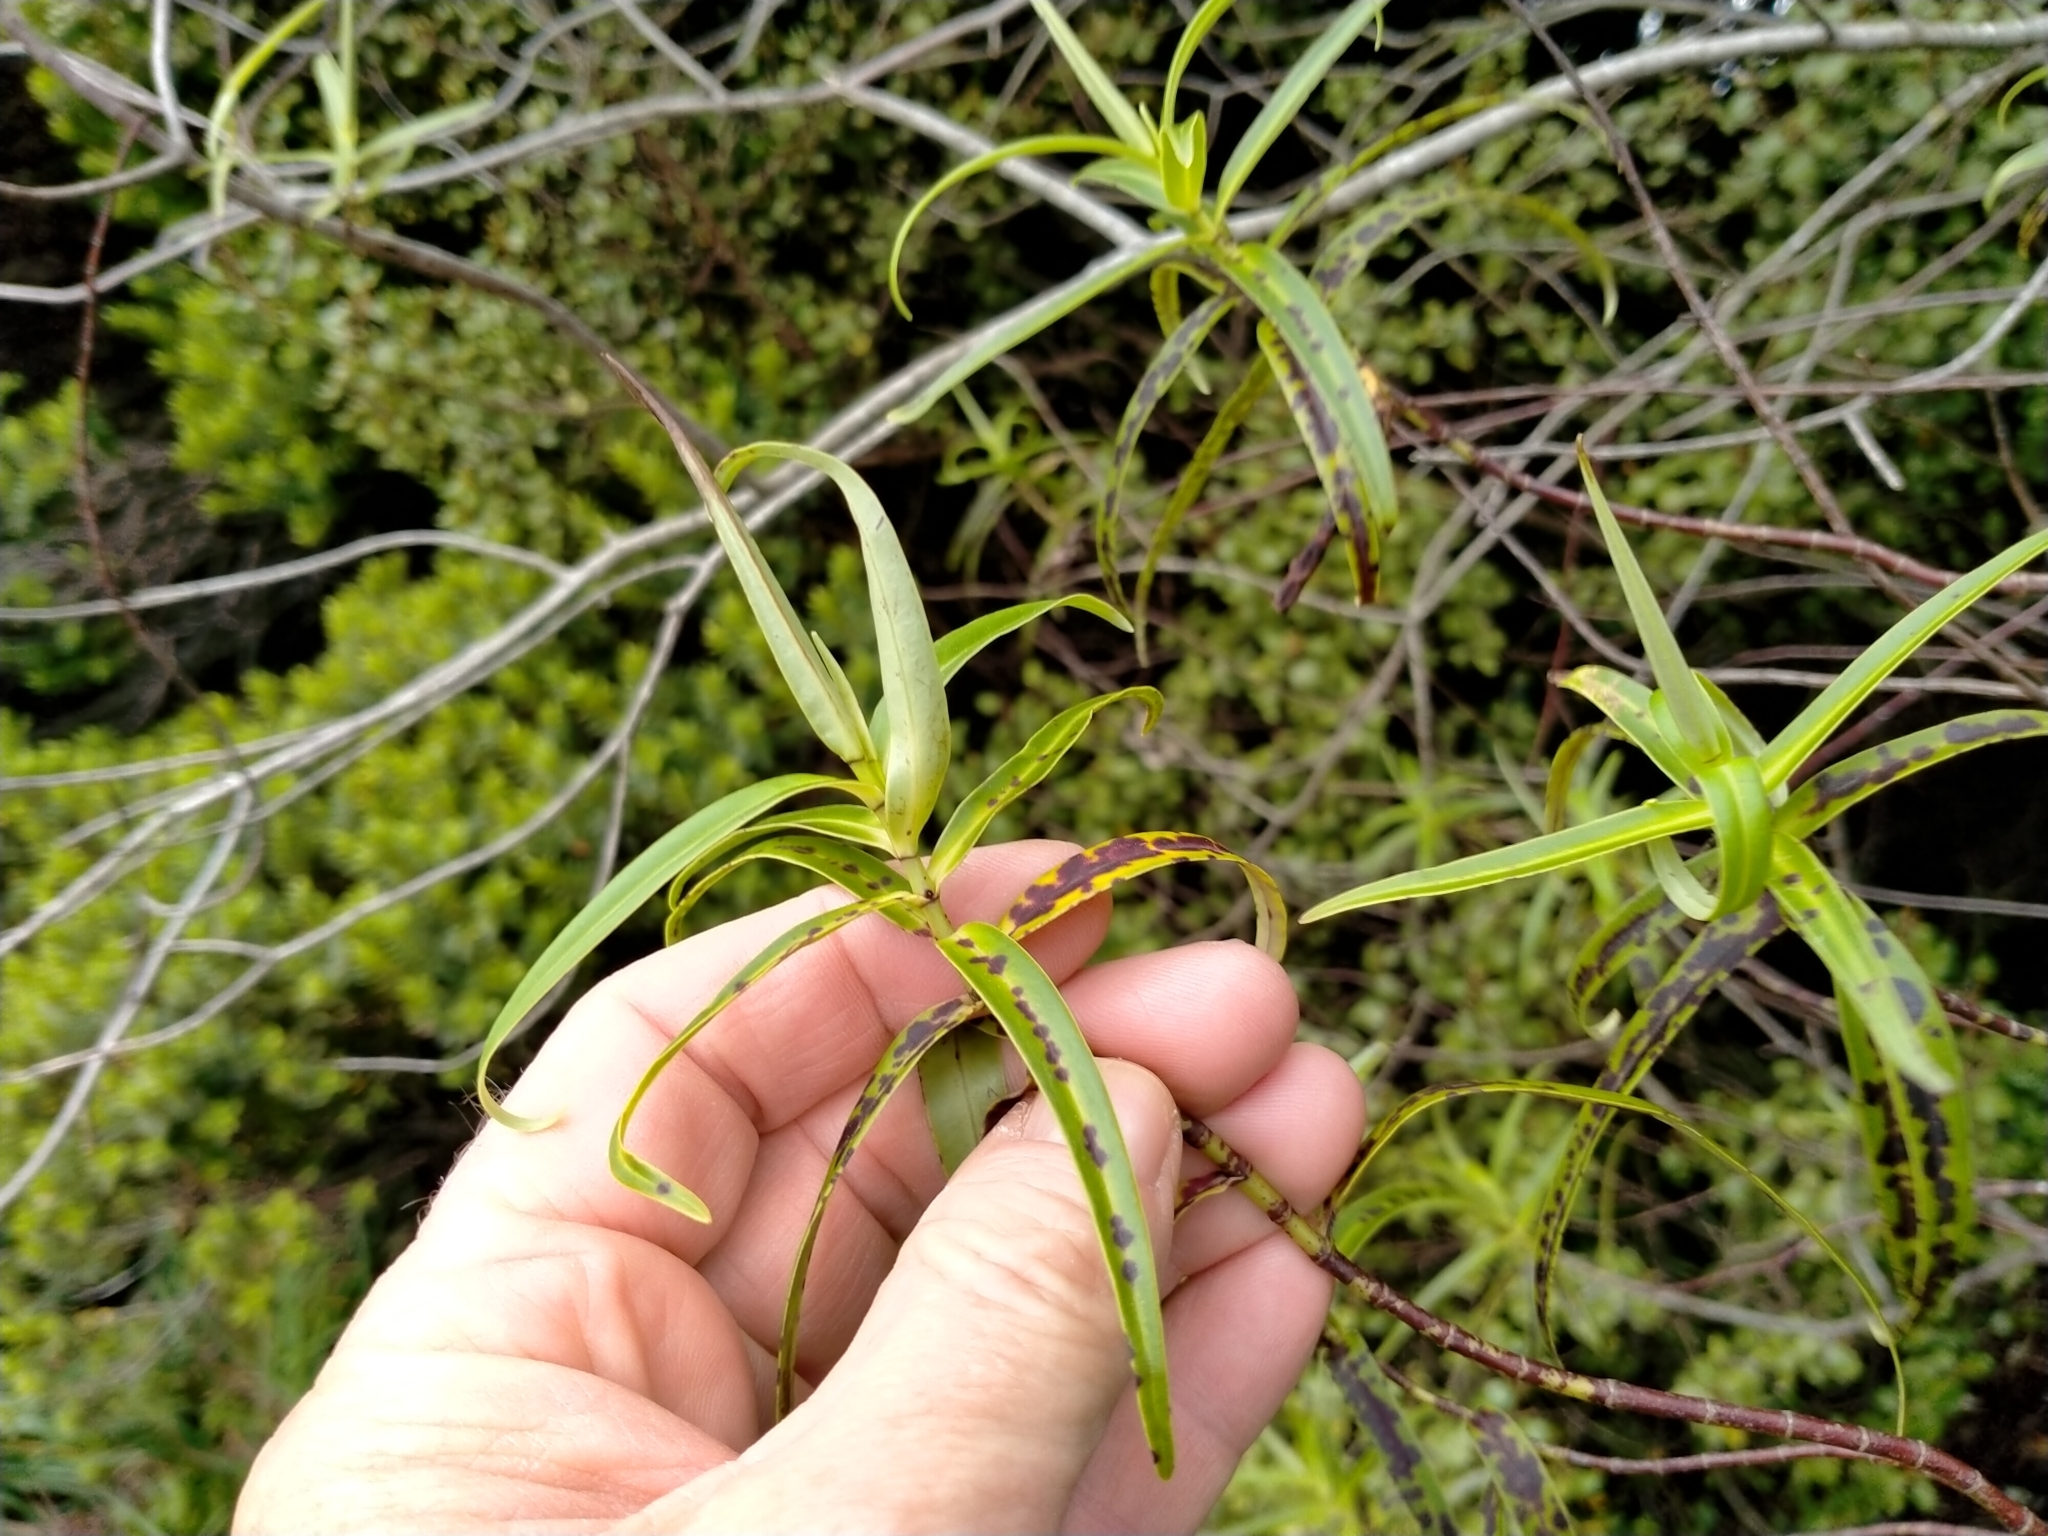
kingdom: Plantae
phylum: Tracheophyta
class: Magnoliopsida
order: Santalales
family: Loranthaceae
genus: Ileostylus
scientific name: Ileostylus micranthus
